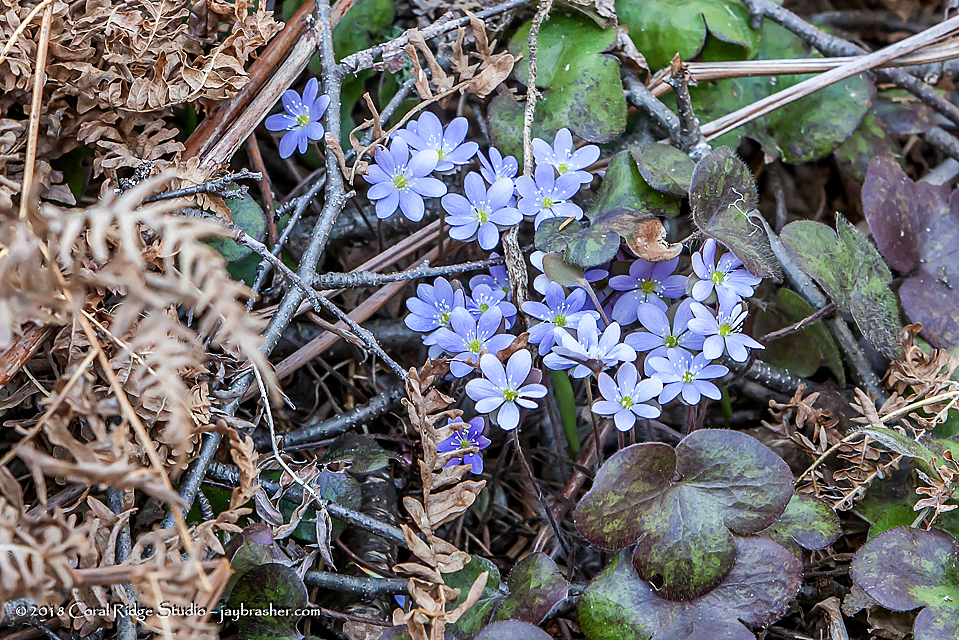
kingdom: Plantae
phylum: Tracheophyta
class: Magnoliopsida
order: Ranunculales
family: Ranunculaceae
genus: Hepatica
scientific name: Hepatica americana
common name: American hepatica
